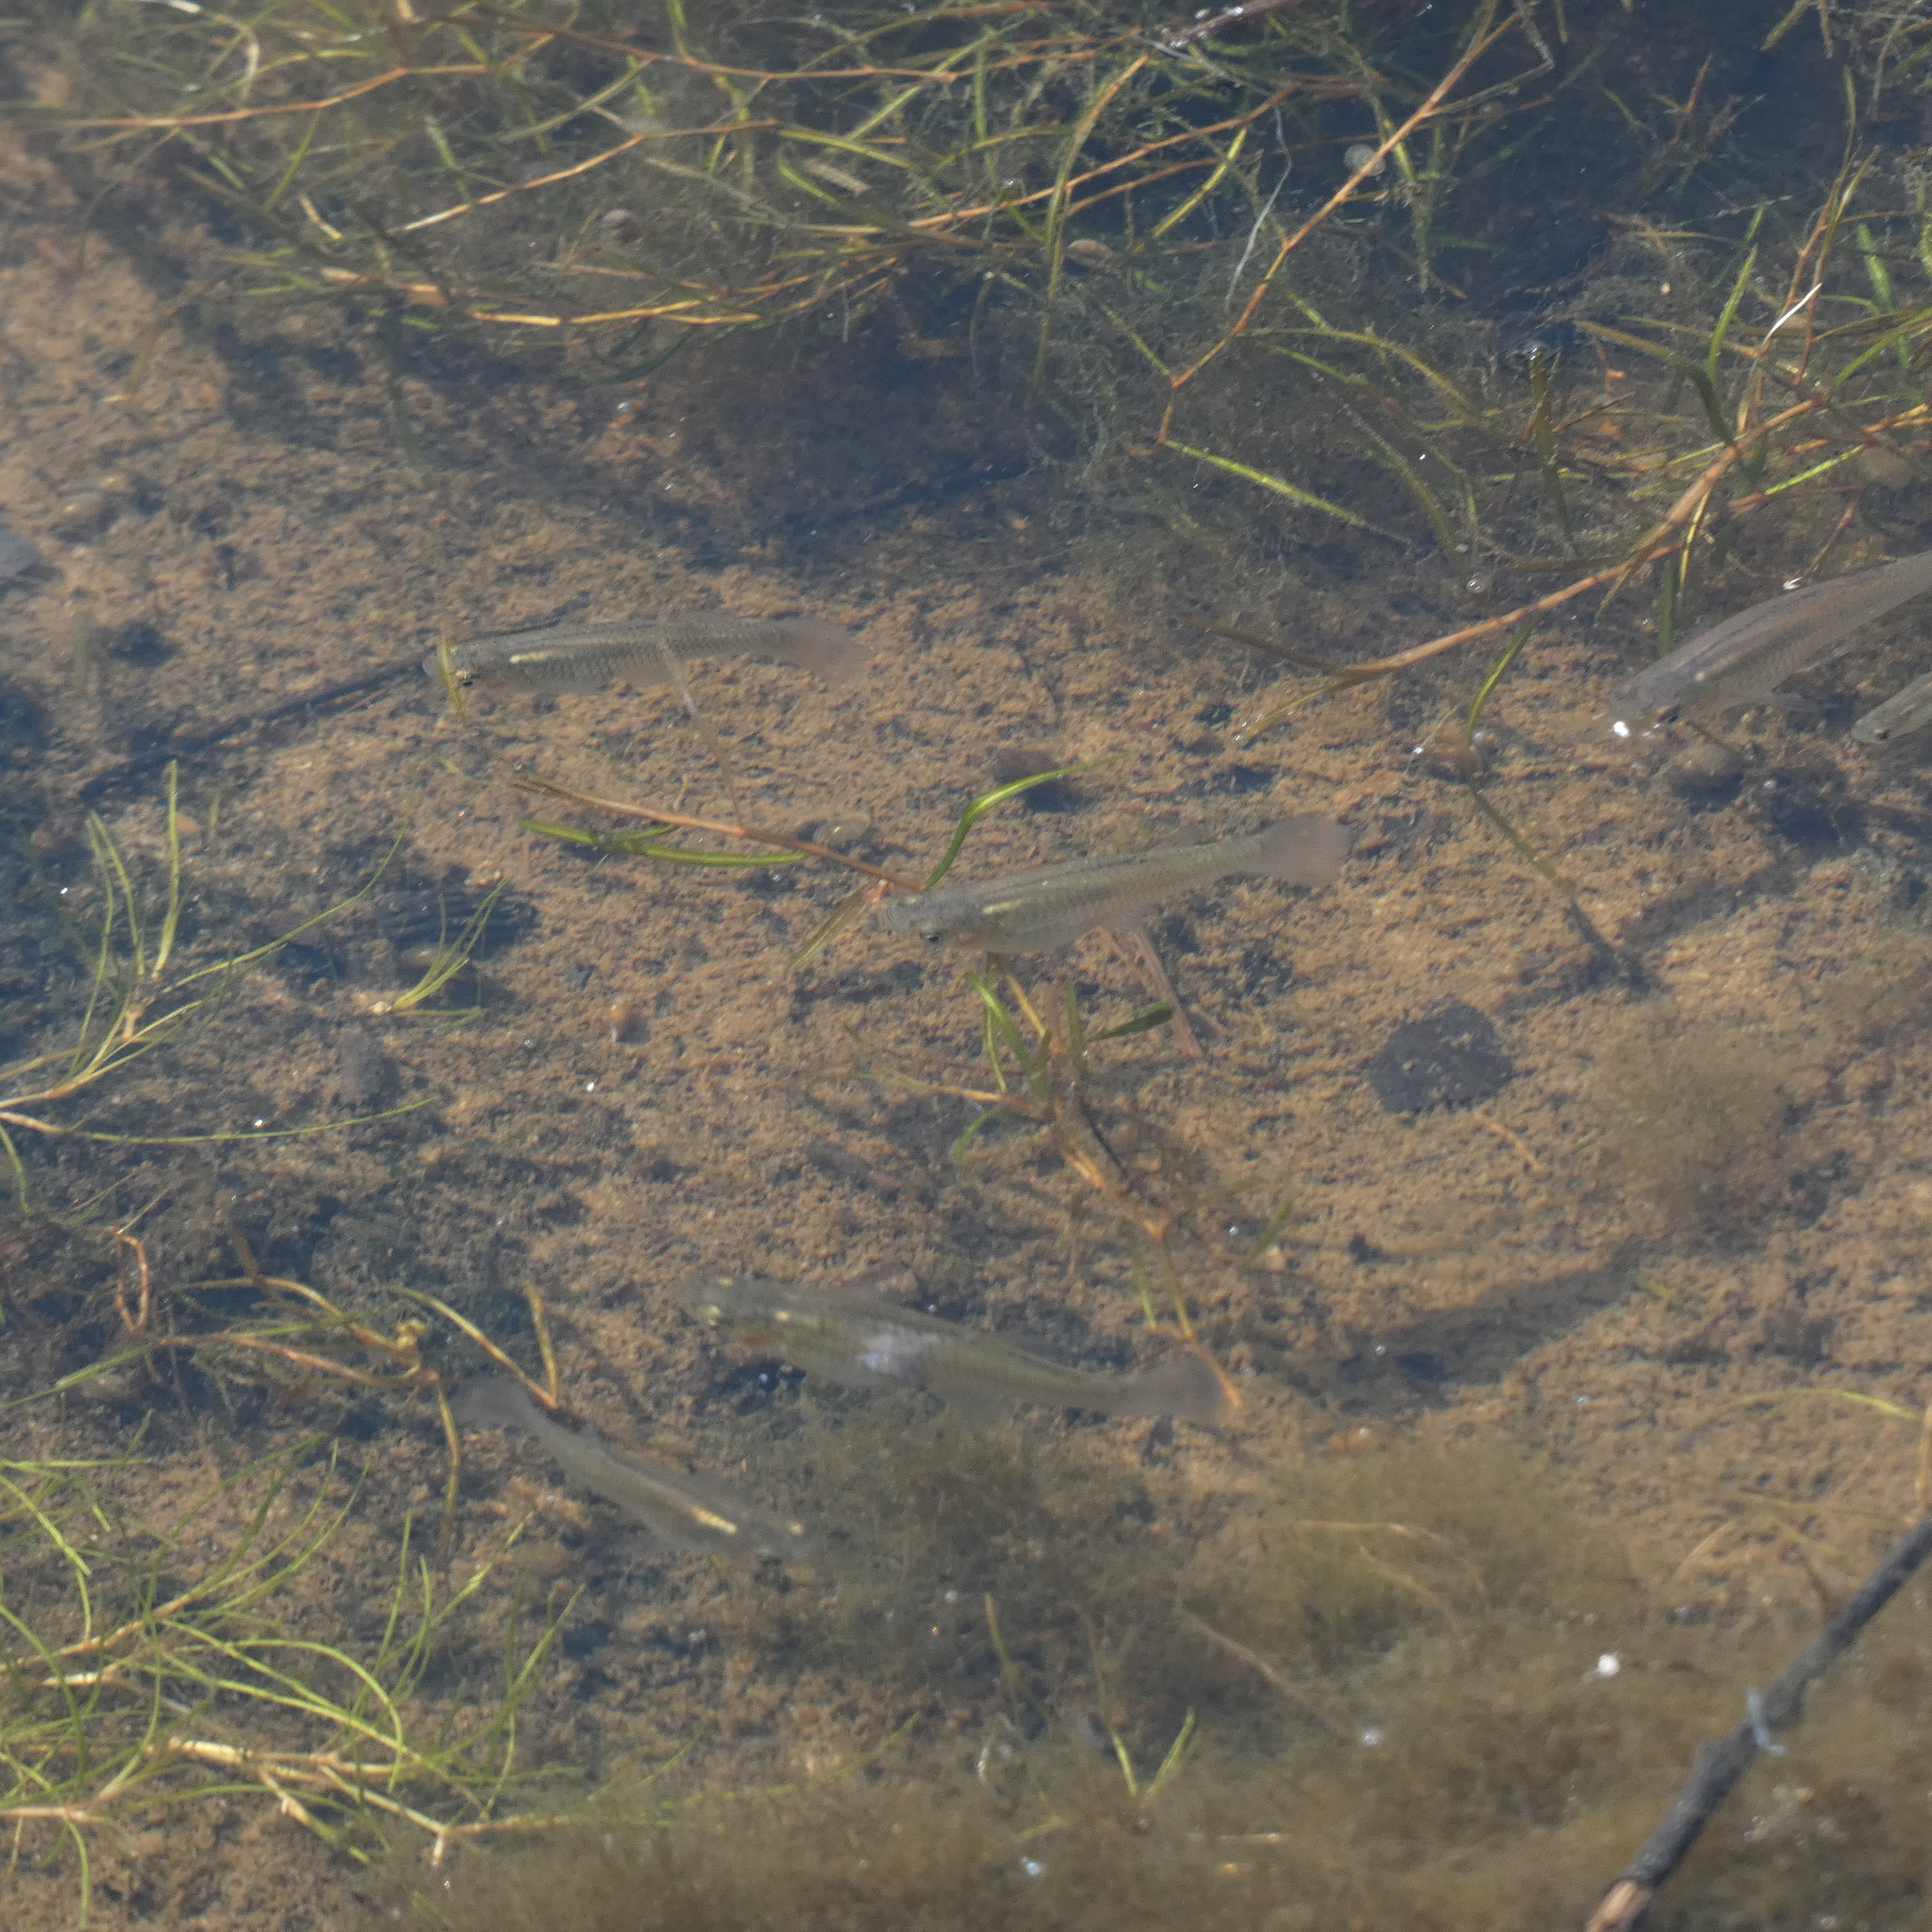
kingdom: Animalia
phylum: Chordata
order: Cyprinodontiformes
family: Poeciliidae
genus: Gambusia
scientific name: Gambusia affinis
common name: Mosquitofish
